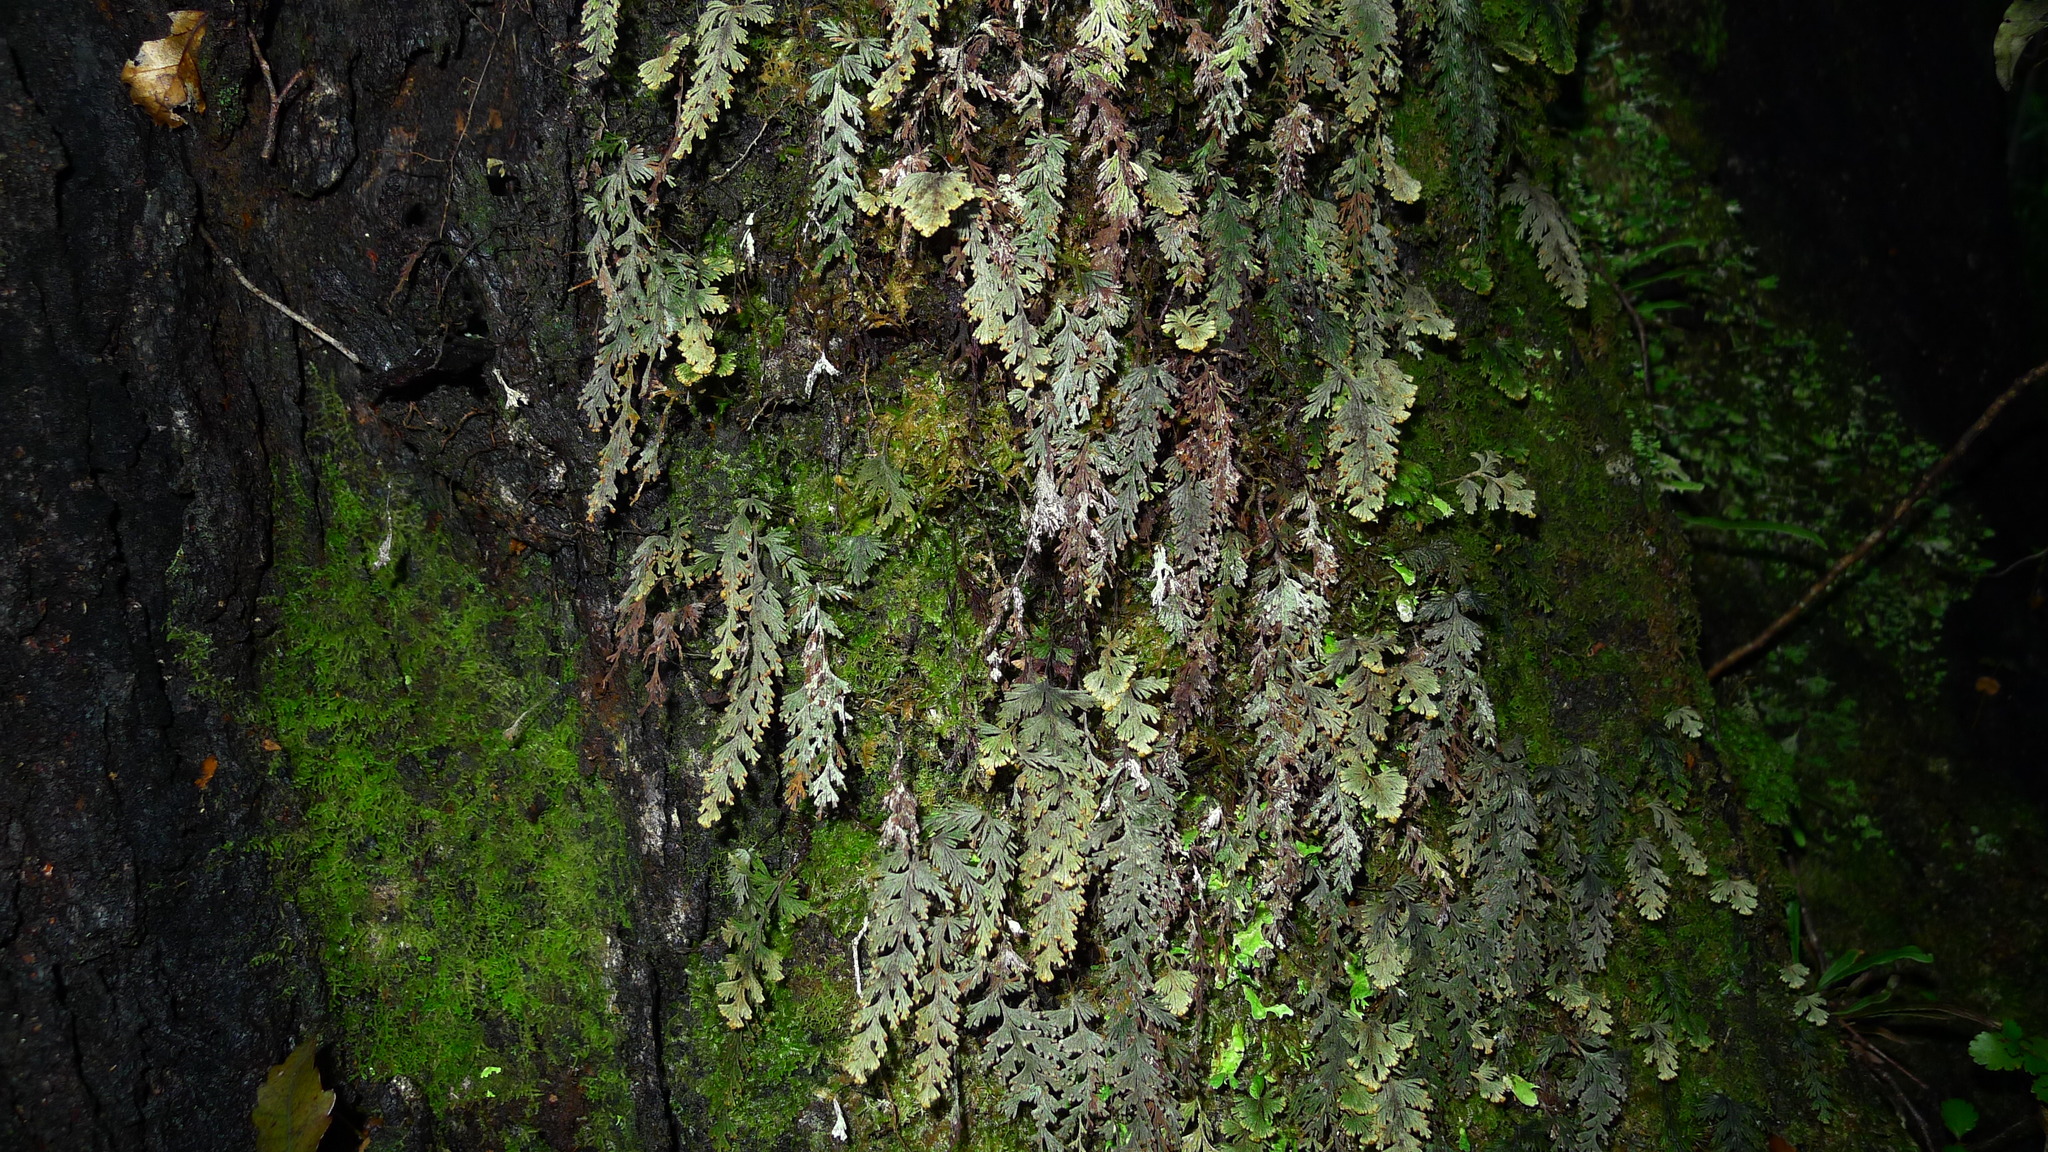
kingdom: Plantae
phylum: Tracheophyta
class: Polypodiopsida
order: Hymenophyllales
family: Hymenophyllaceae
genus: Hymenophyllum
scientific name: Hymenophyllum malingii
